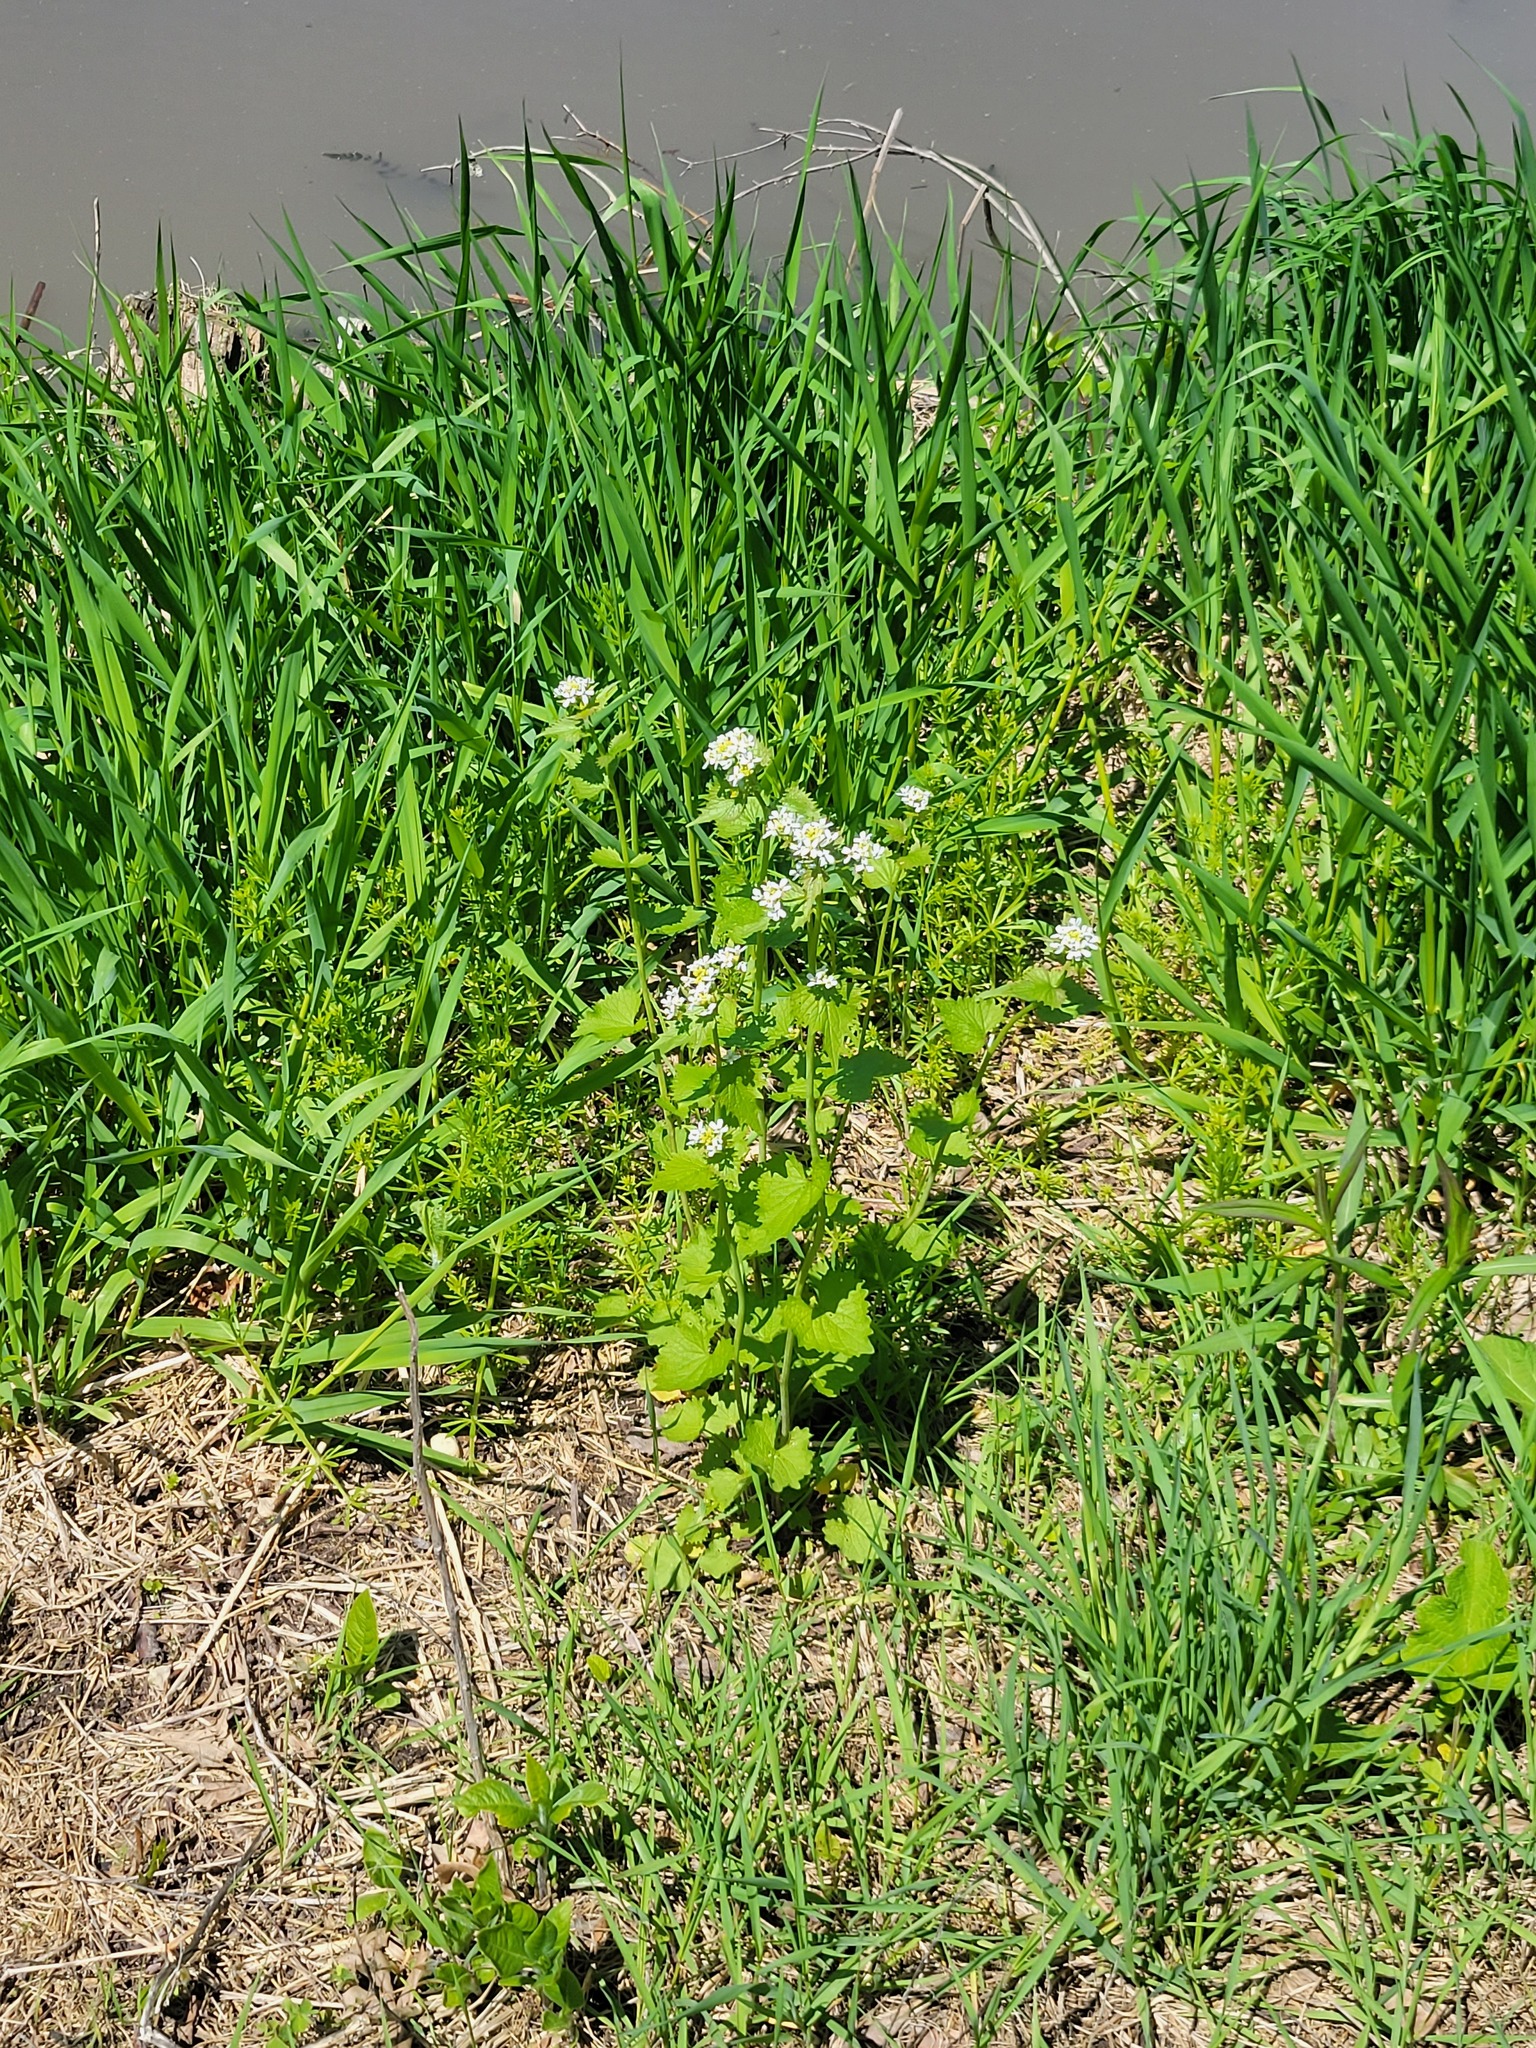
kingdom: Plantae
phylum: Tracheophyta
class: Magnoliopsida
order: Brassicales
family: Brassicaceae
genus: Alliaria
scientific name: Alliaria petiolata
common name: Garlic mustard
